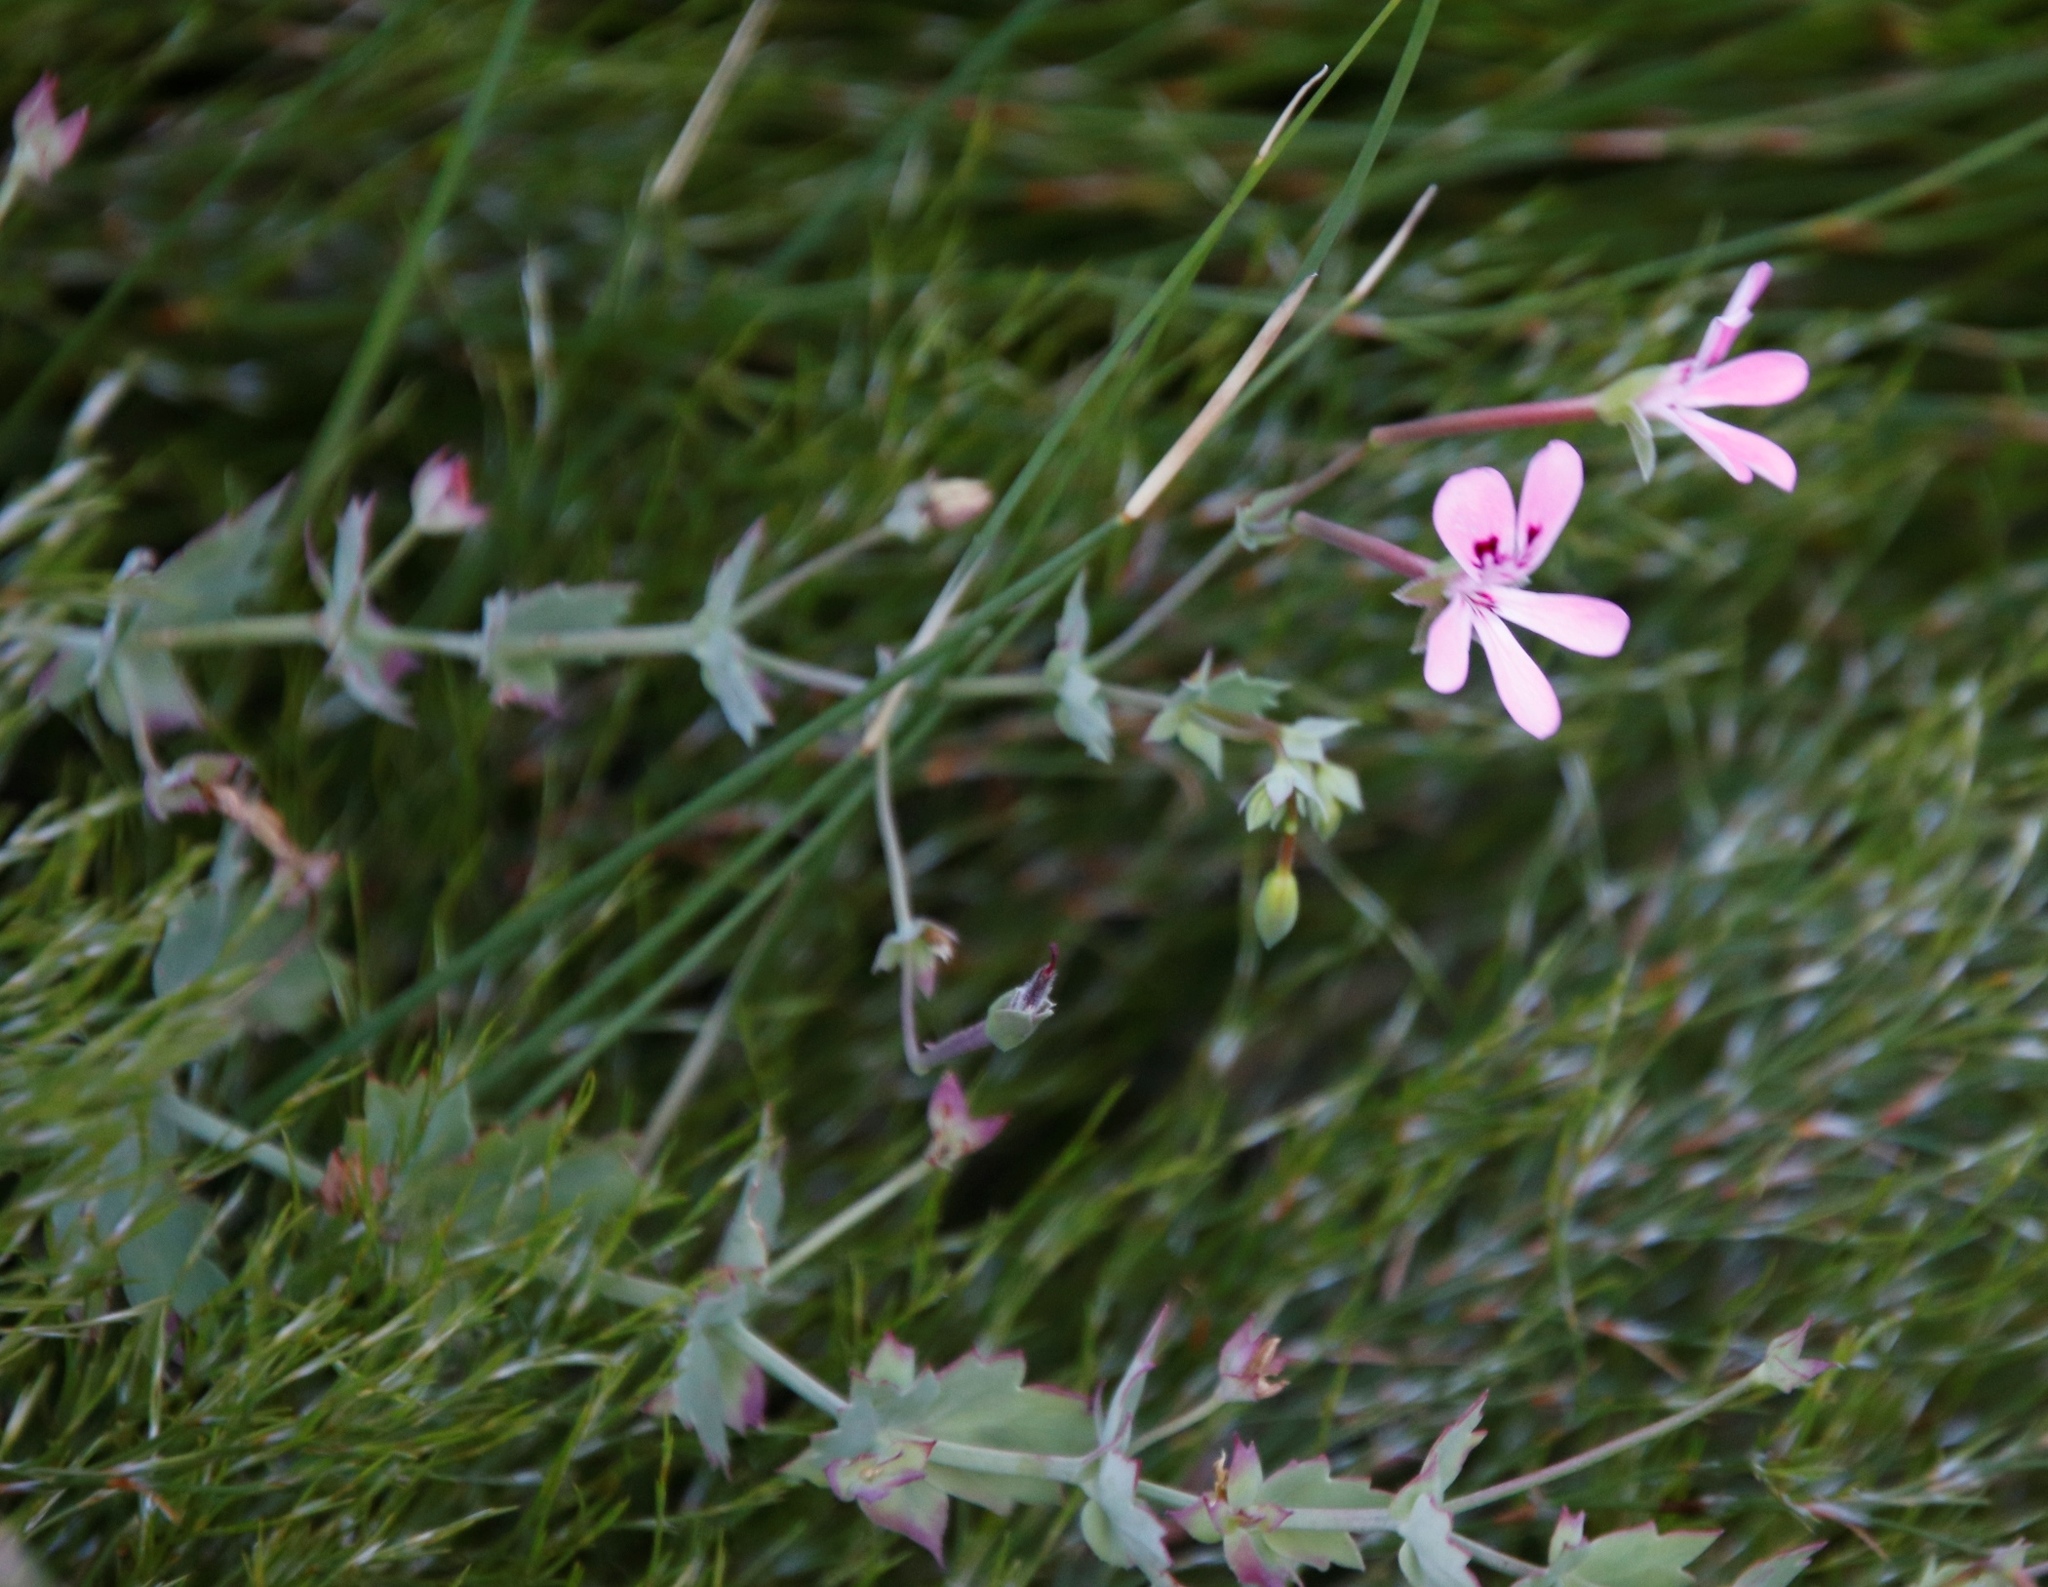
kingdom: Plantae
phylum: Tracheophyta
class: Magnoliopsida
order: Geraniales
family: Geraniaceae
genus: Pelargonium
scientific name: Pelargonium patulum
